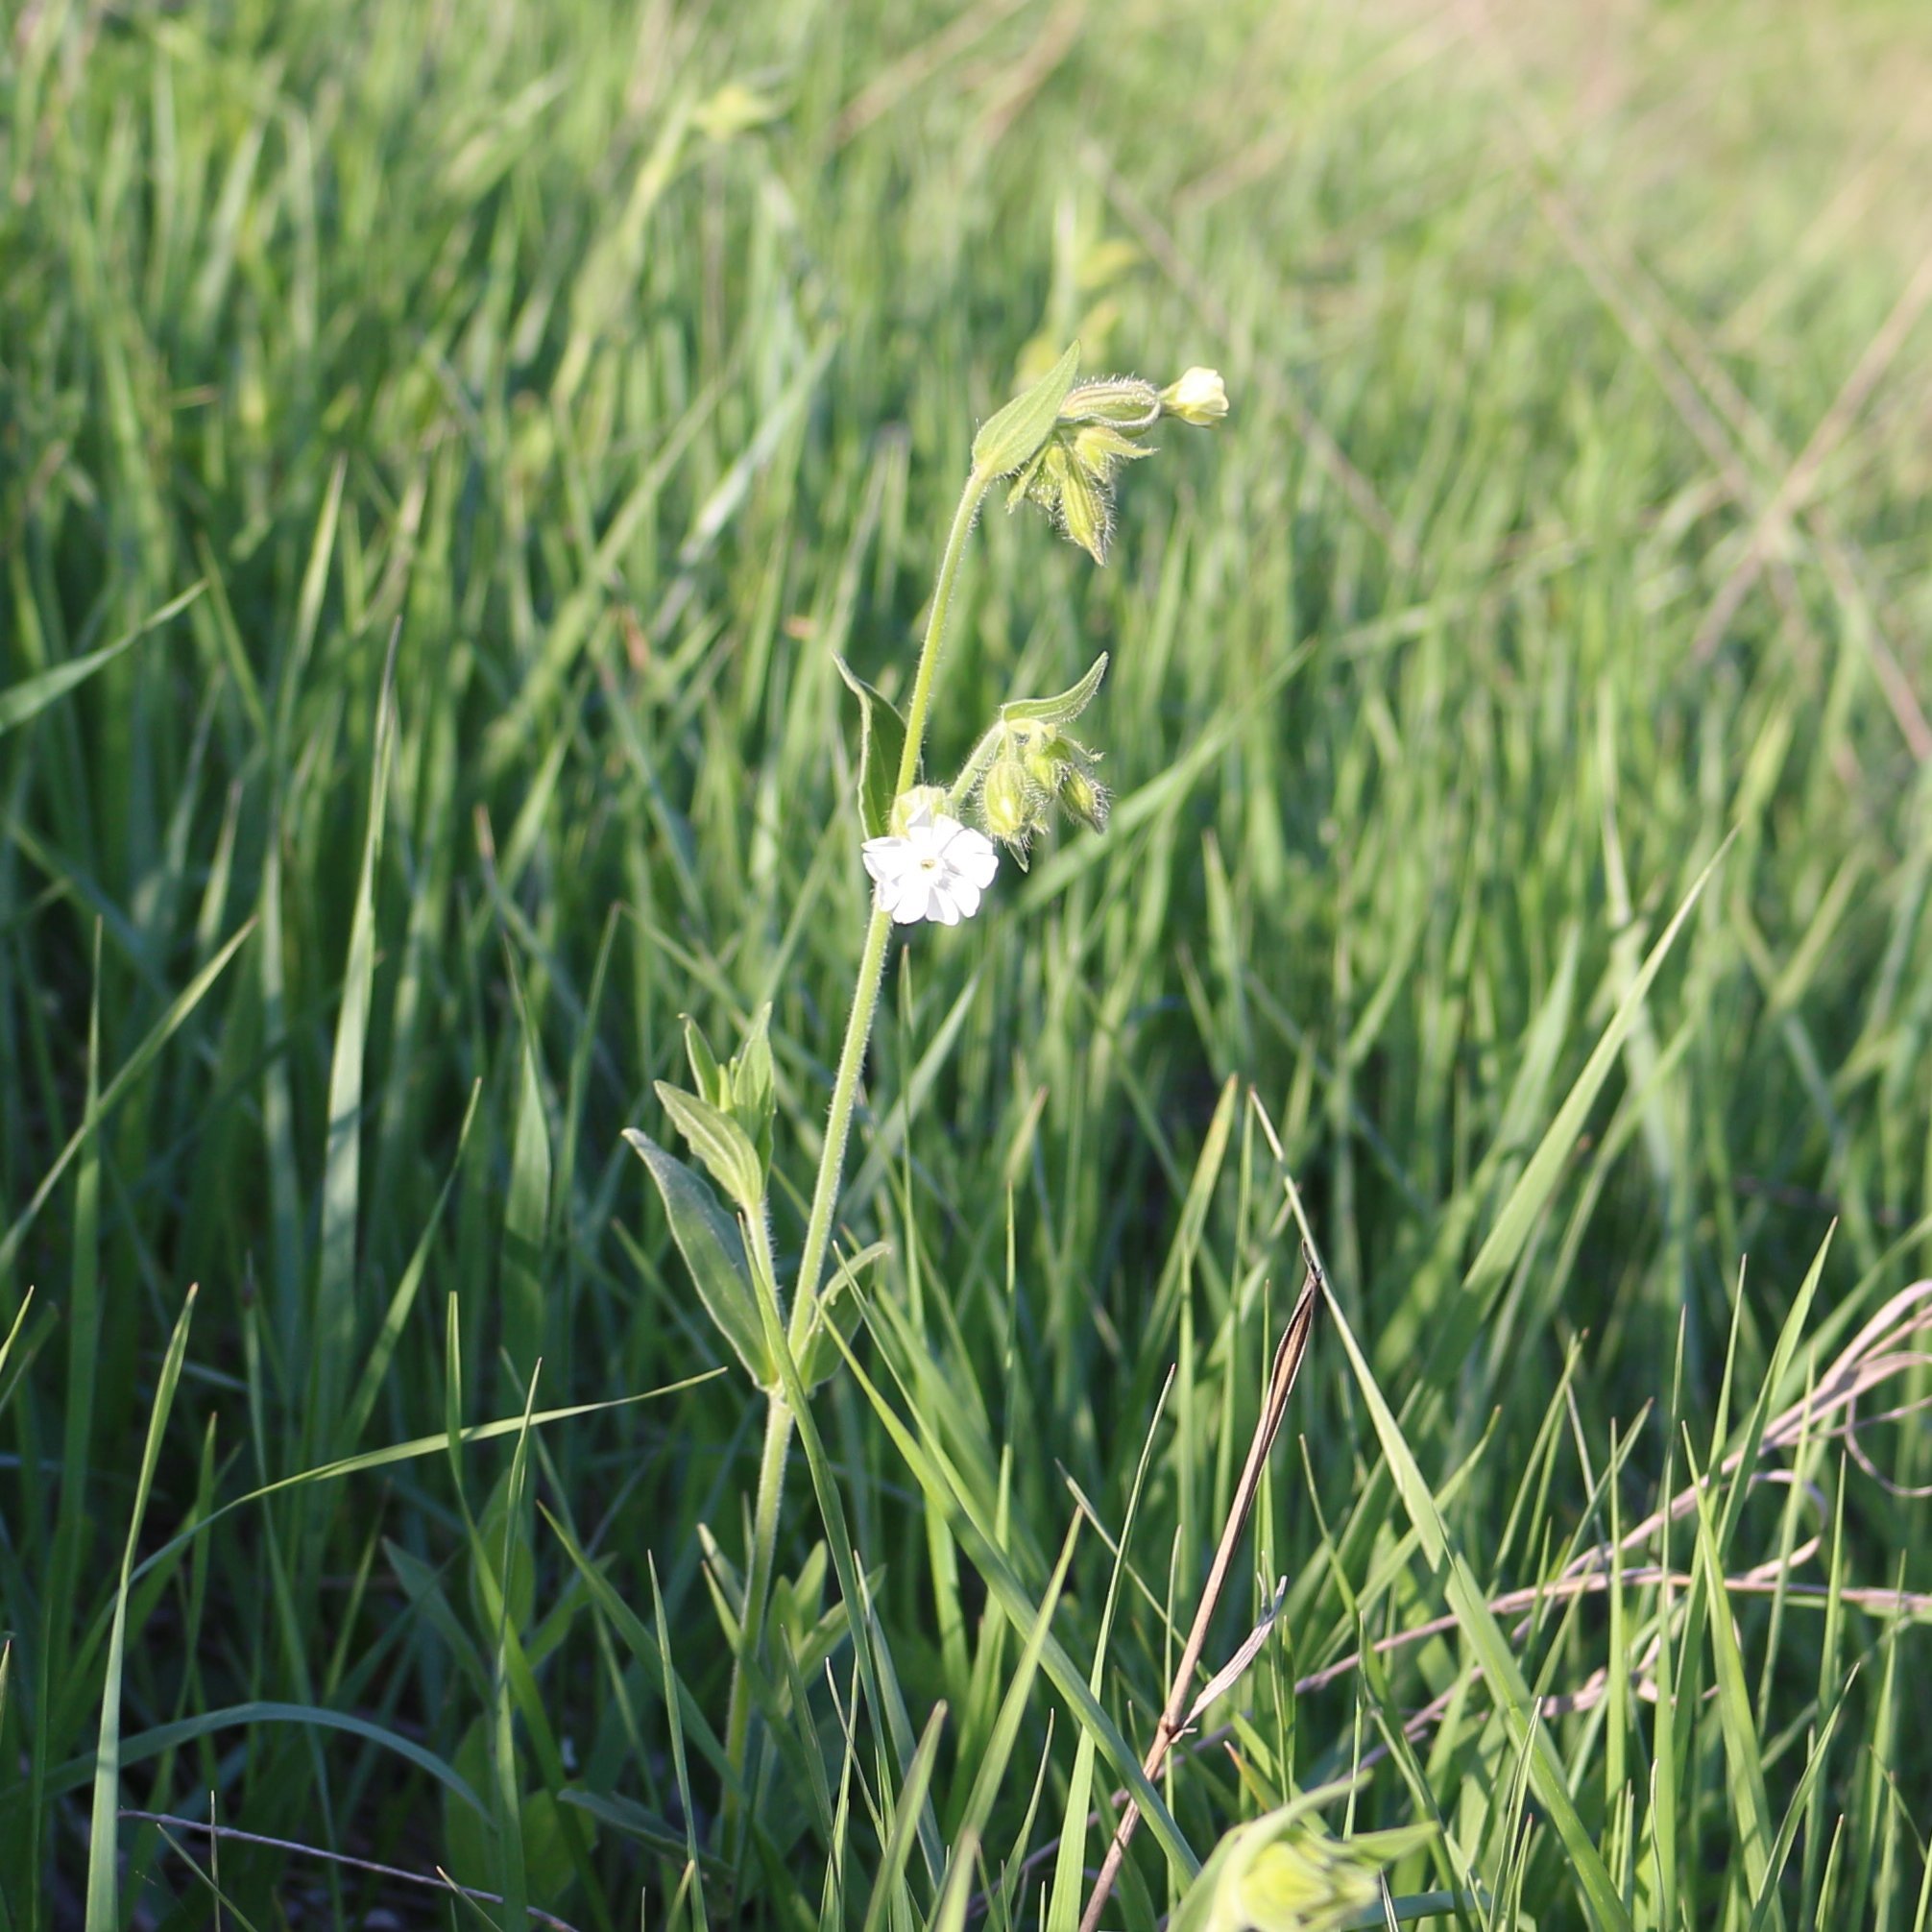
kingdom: Plantae
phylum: Tracheophyta
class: Magnoliopsida
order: Caryophyllales
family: Caryophyllaceae
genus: Silene
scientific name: Silene latifolia
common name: White campion
